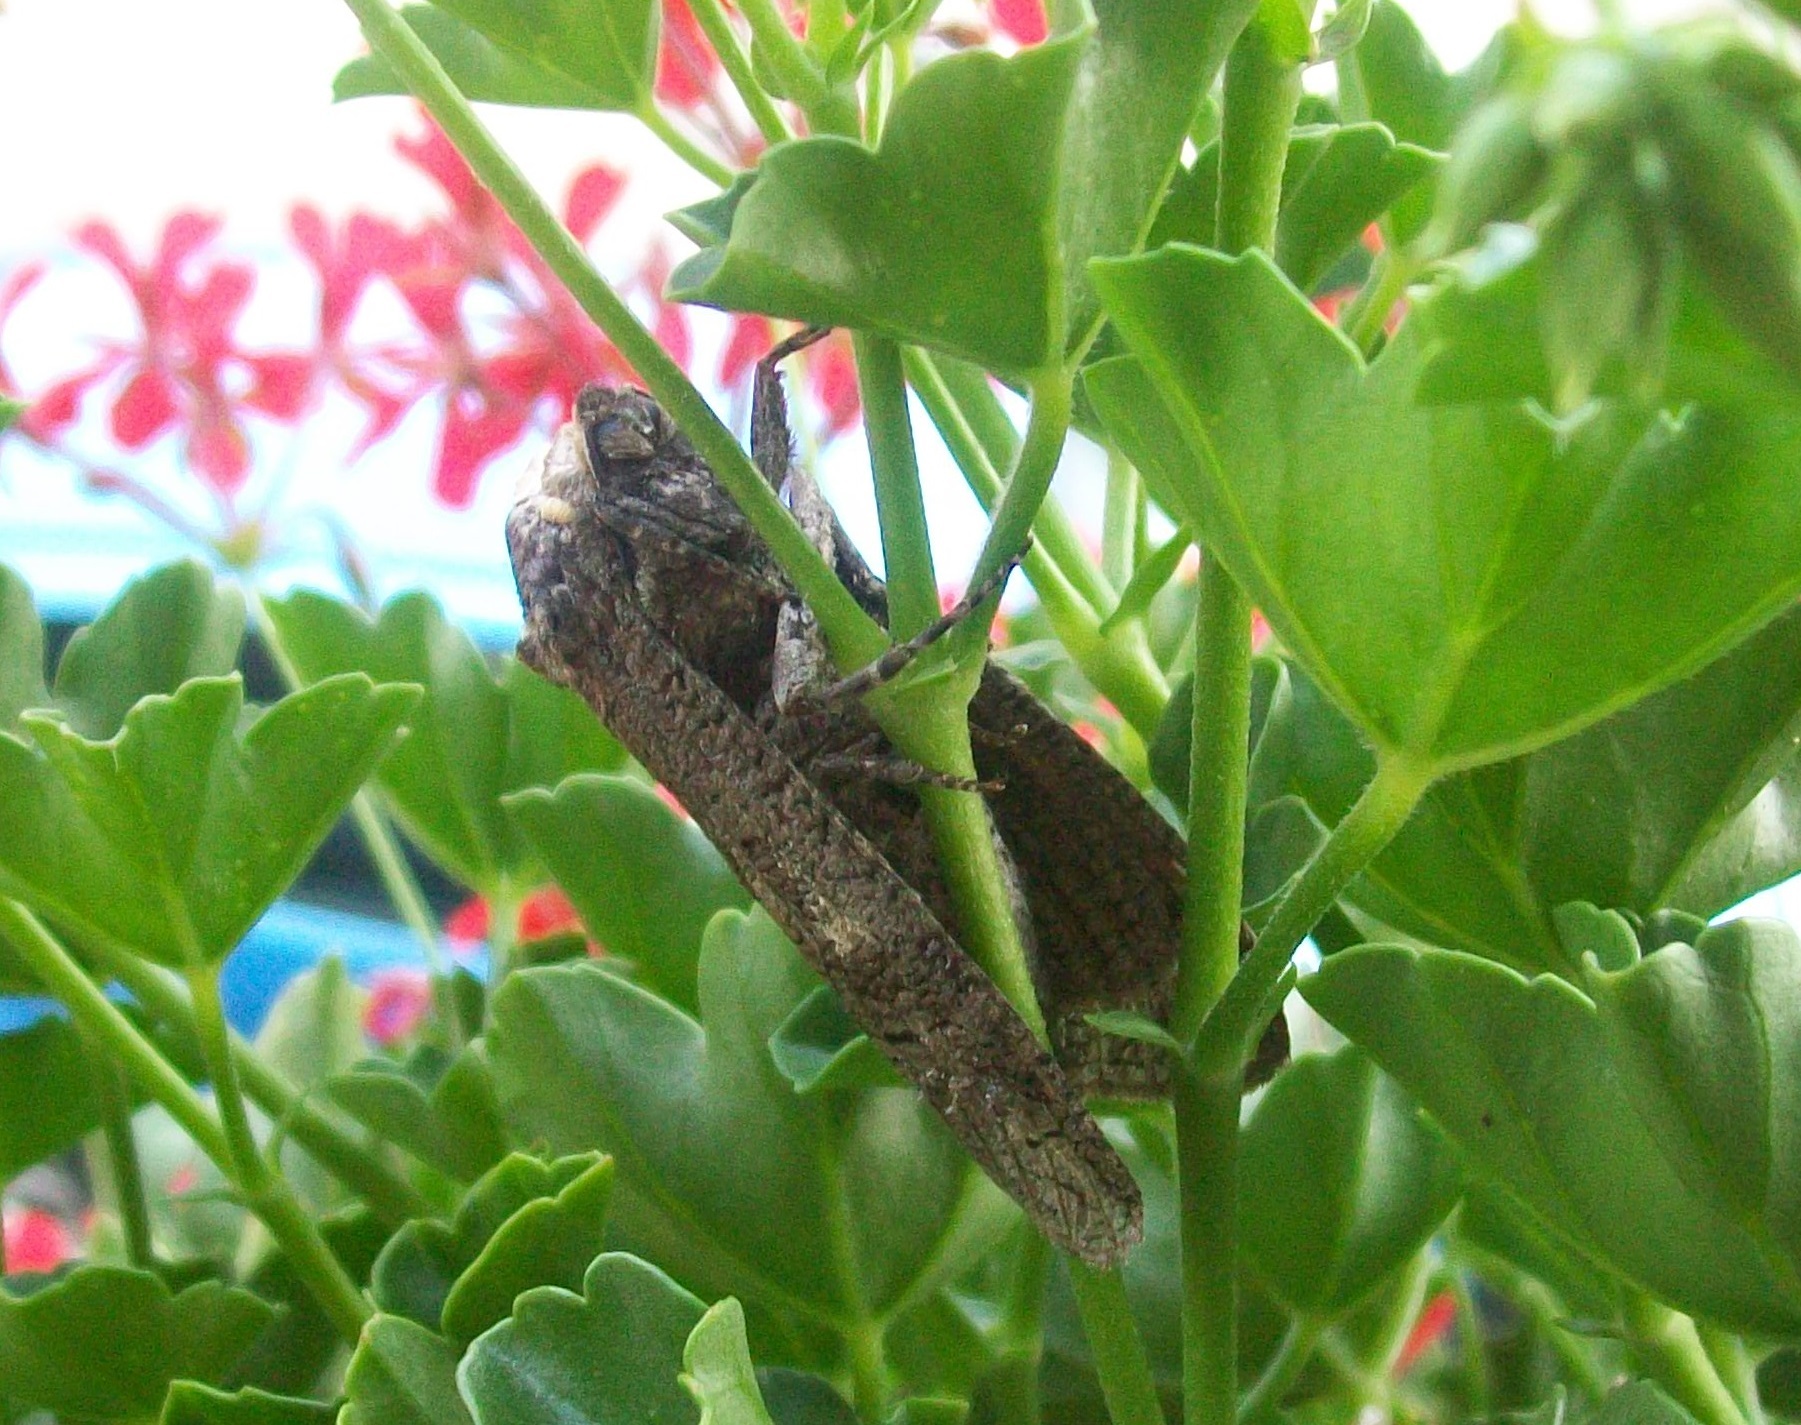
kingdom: Animalia
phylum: Arthropoda
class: Insecta
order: Lepidoptera
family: Cossidae
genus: Cossus
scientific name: Cossus cossus
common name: Goat moth
